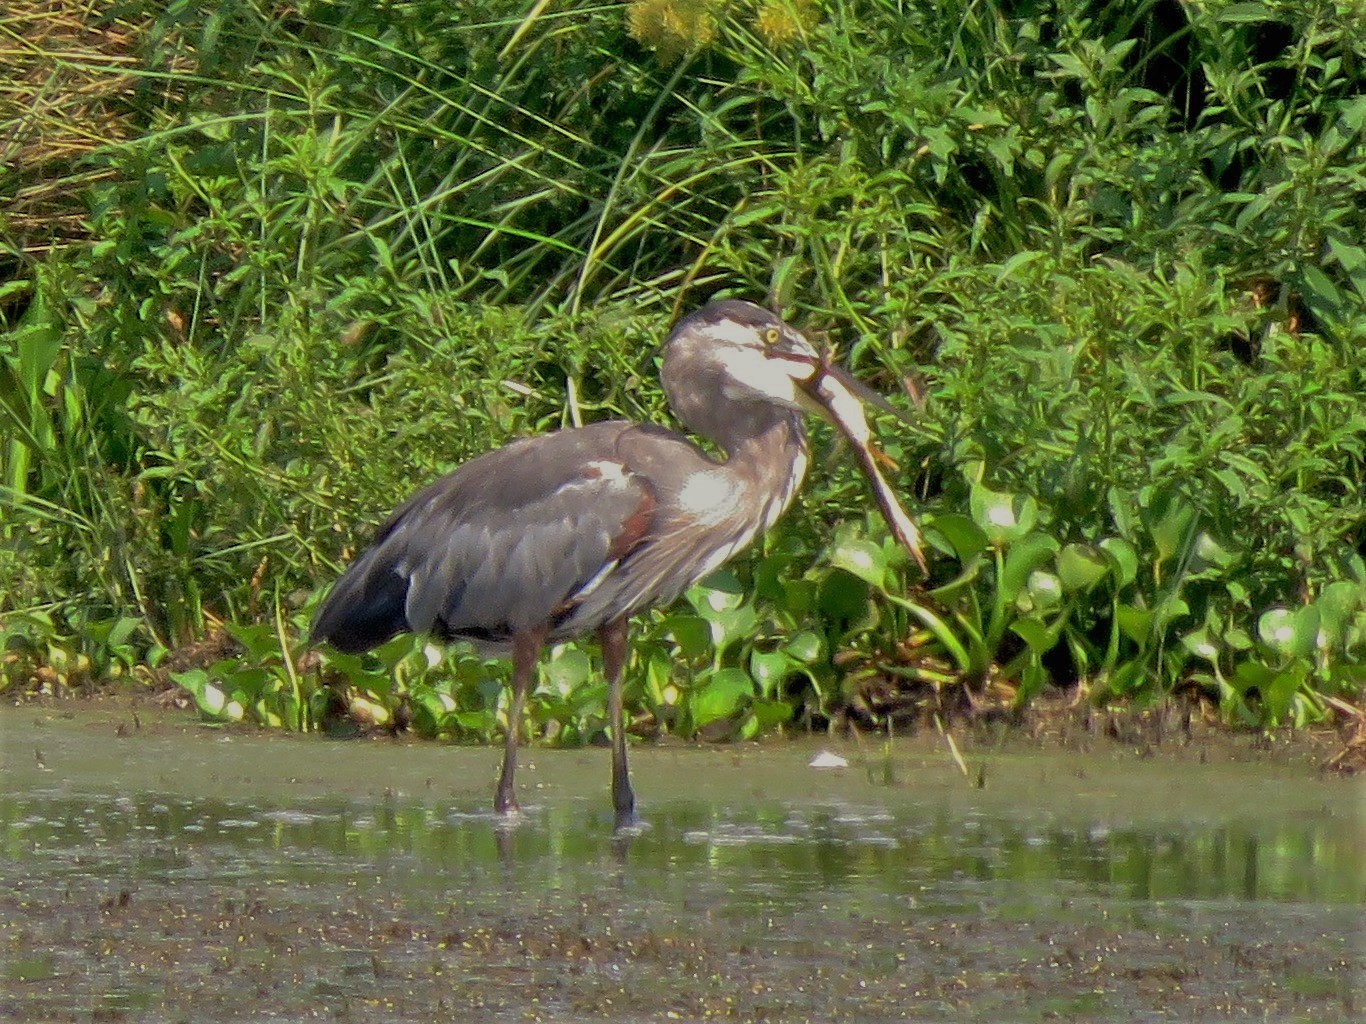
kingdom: Animalia
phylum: Chordata
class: Aves
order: Pelecaniformes
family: Ardeidae
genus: Ardea
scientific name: Ardea herodias
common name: Great blue heron
